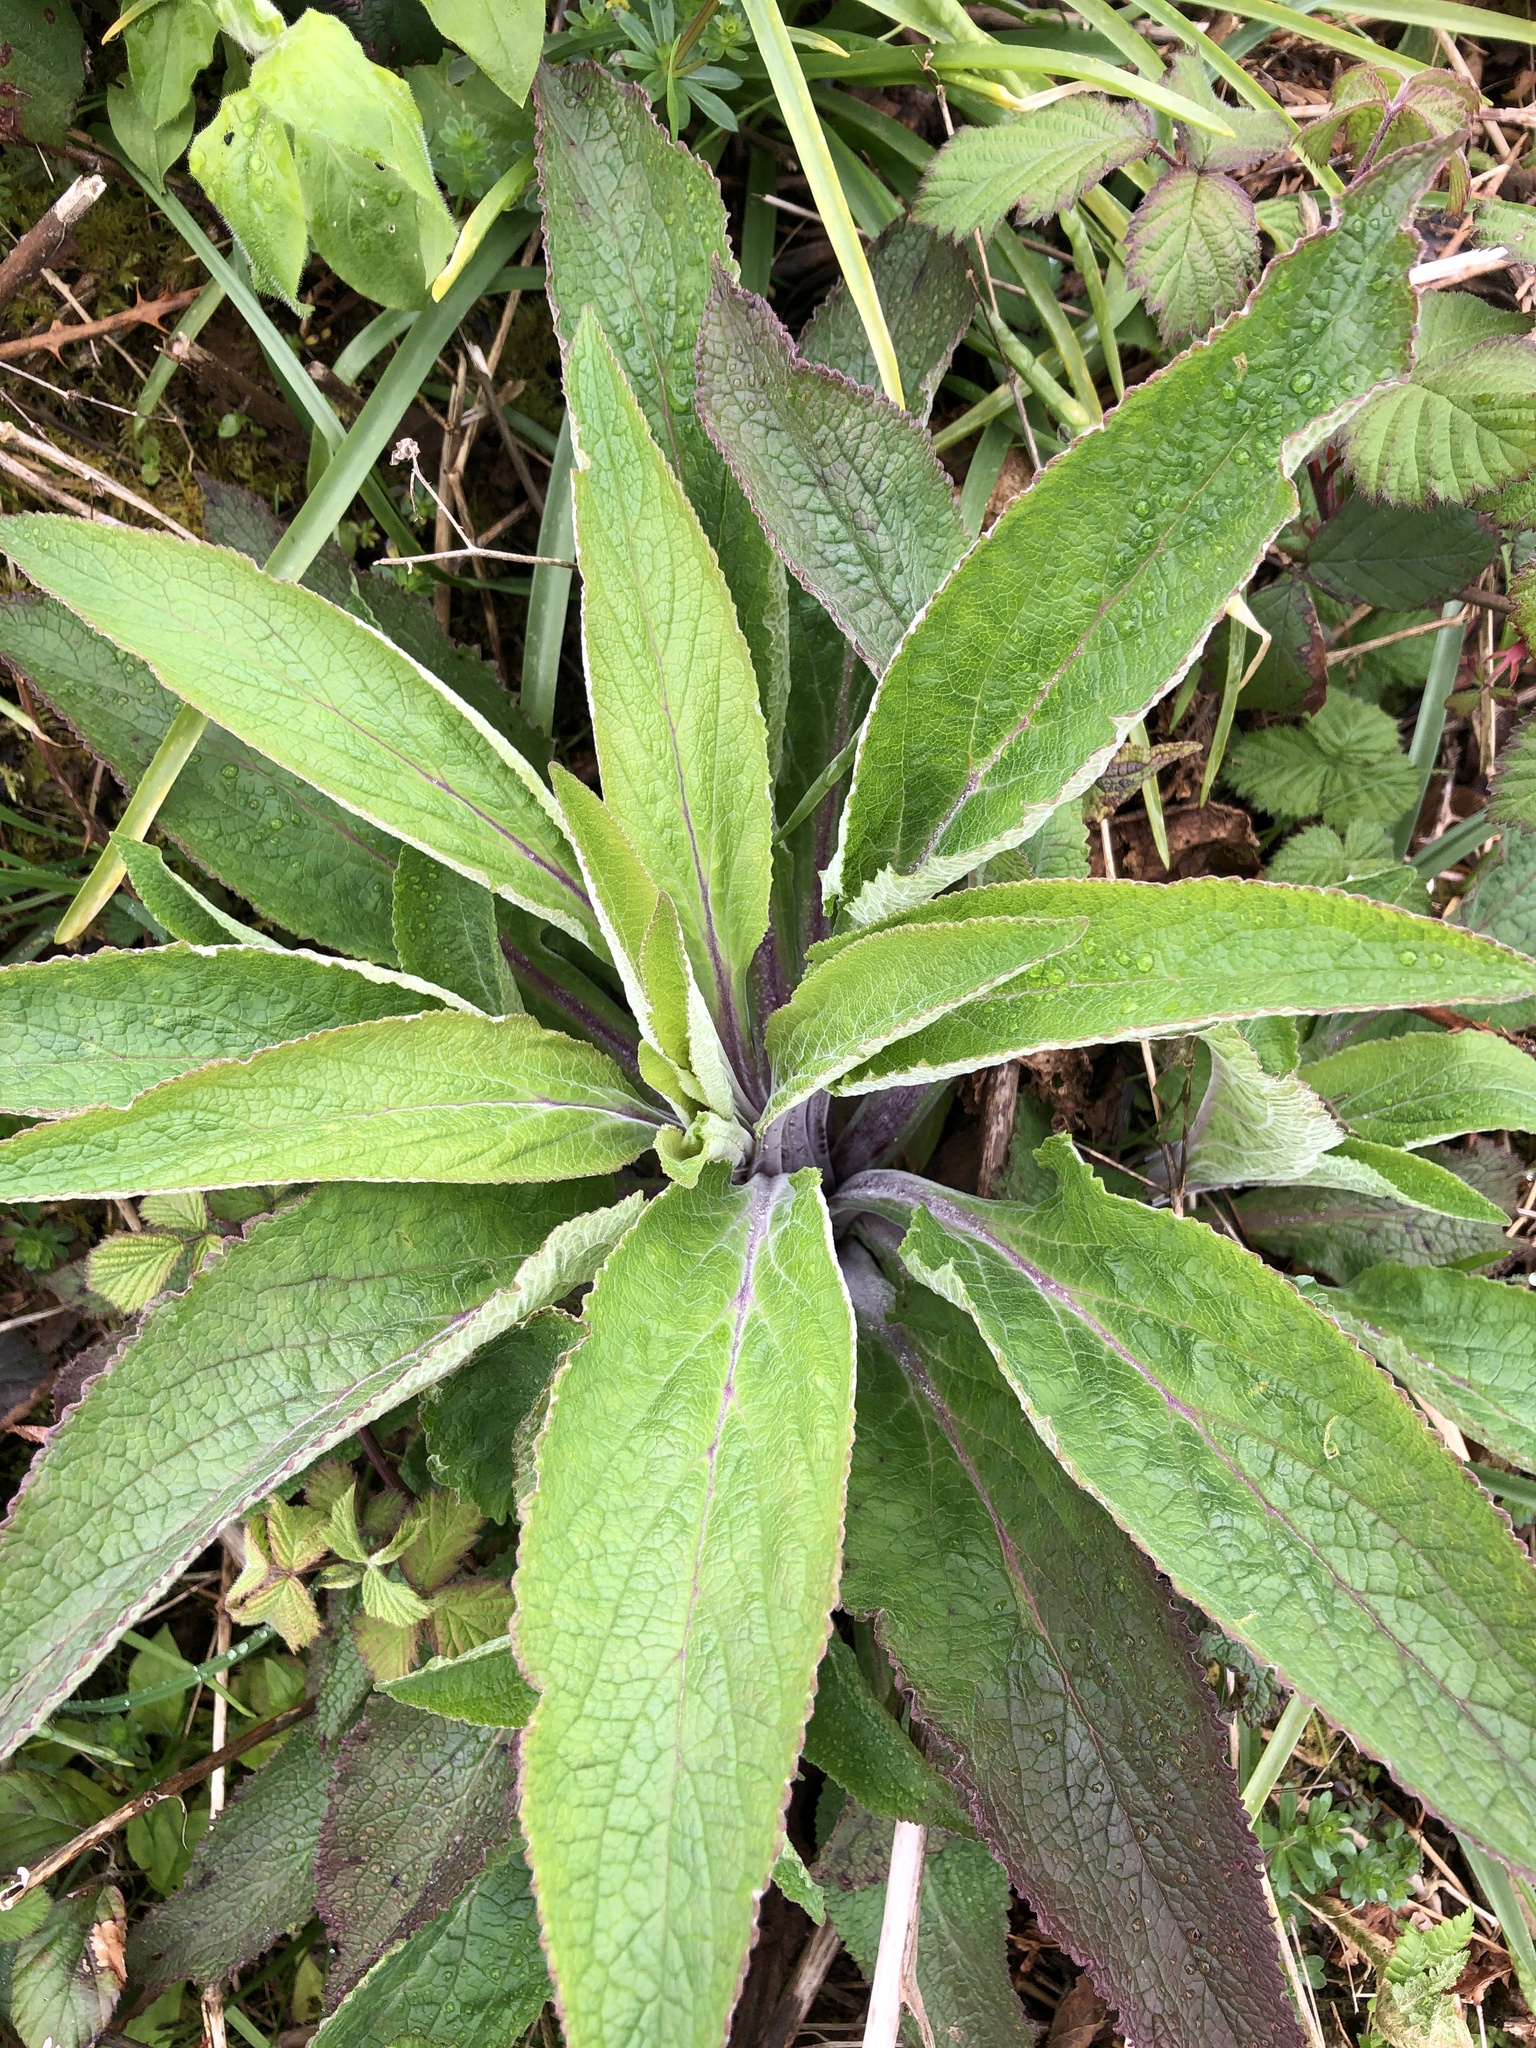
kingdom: Plantae
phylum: Tracheophyta
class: Magnoliopsida
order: Lamiales
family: Plantaginaceae
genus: Digitalis
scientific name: Digitalis purpurea
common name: Foxglove
